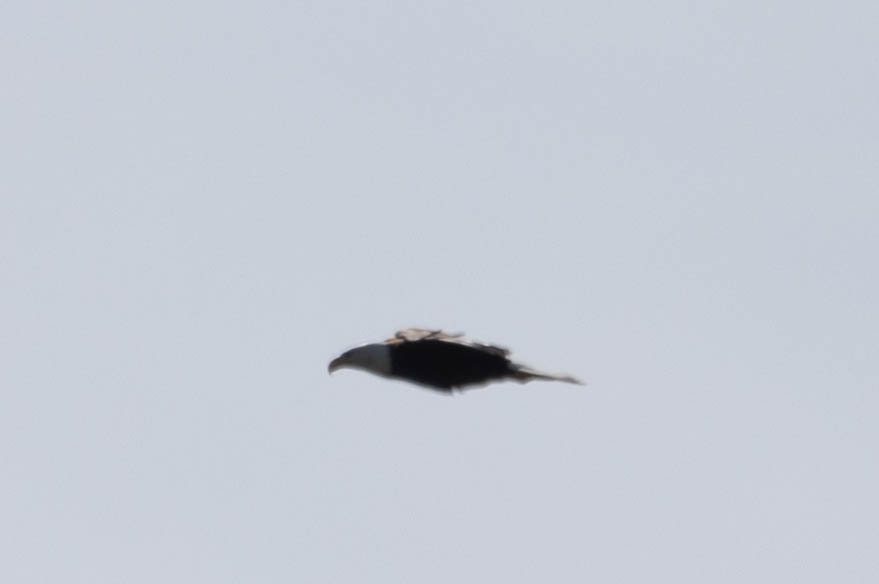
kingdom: Animalia
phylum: Chordata
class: Aves
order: Accipitriformes
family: Accipitridae
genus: Haliaeetus
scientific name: Haliaeetus leucocephalus
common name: Bald eagle
